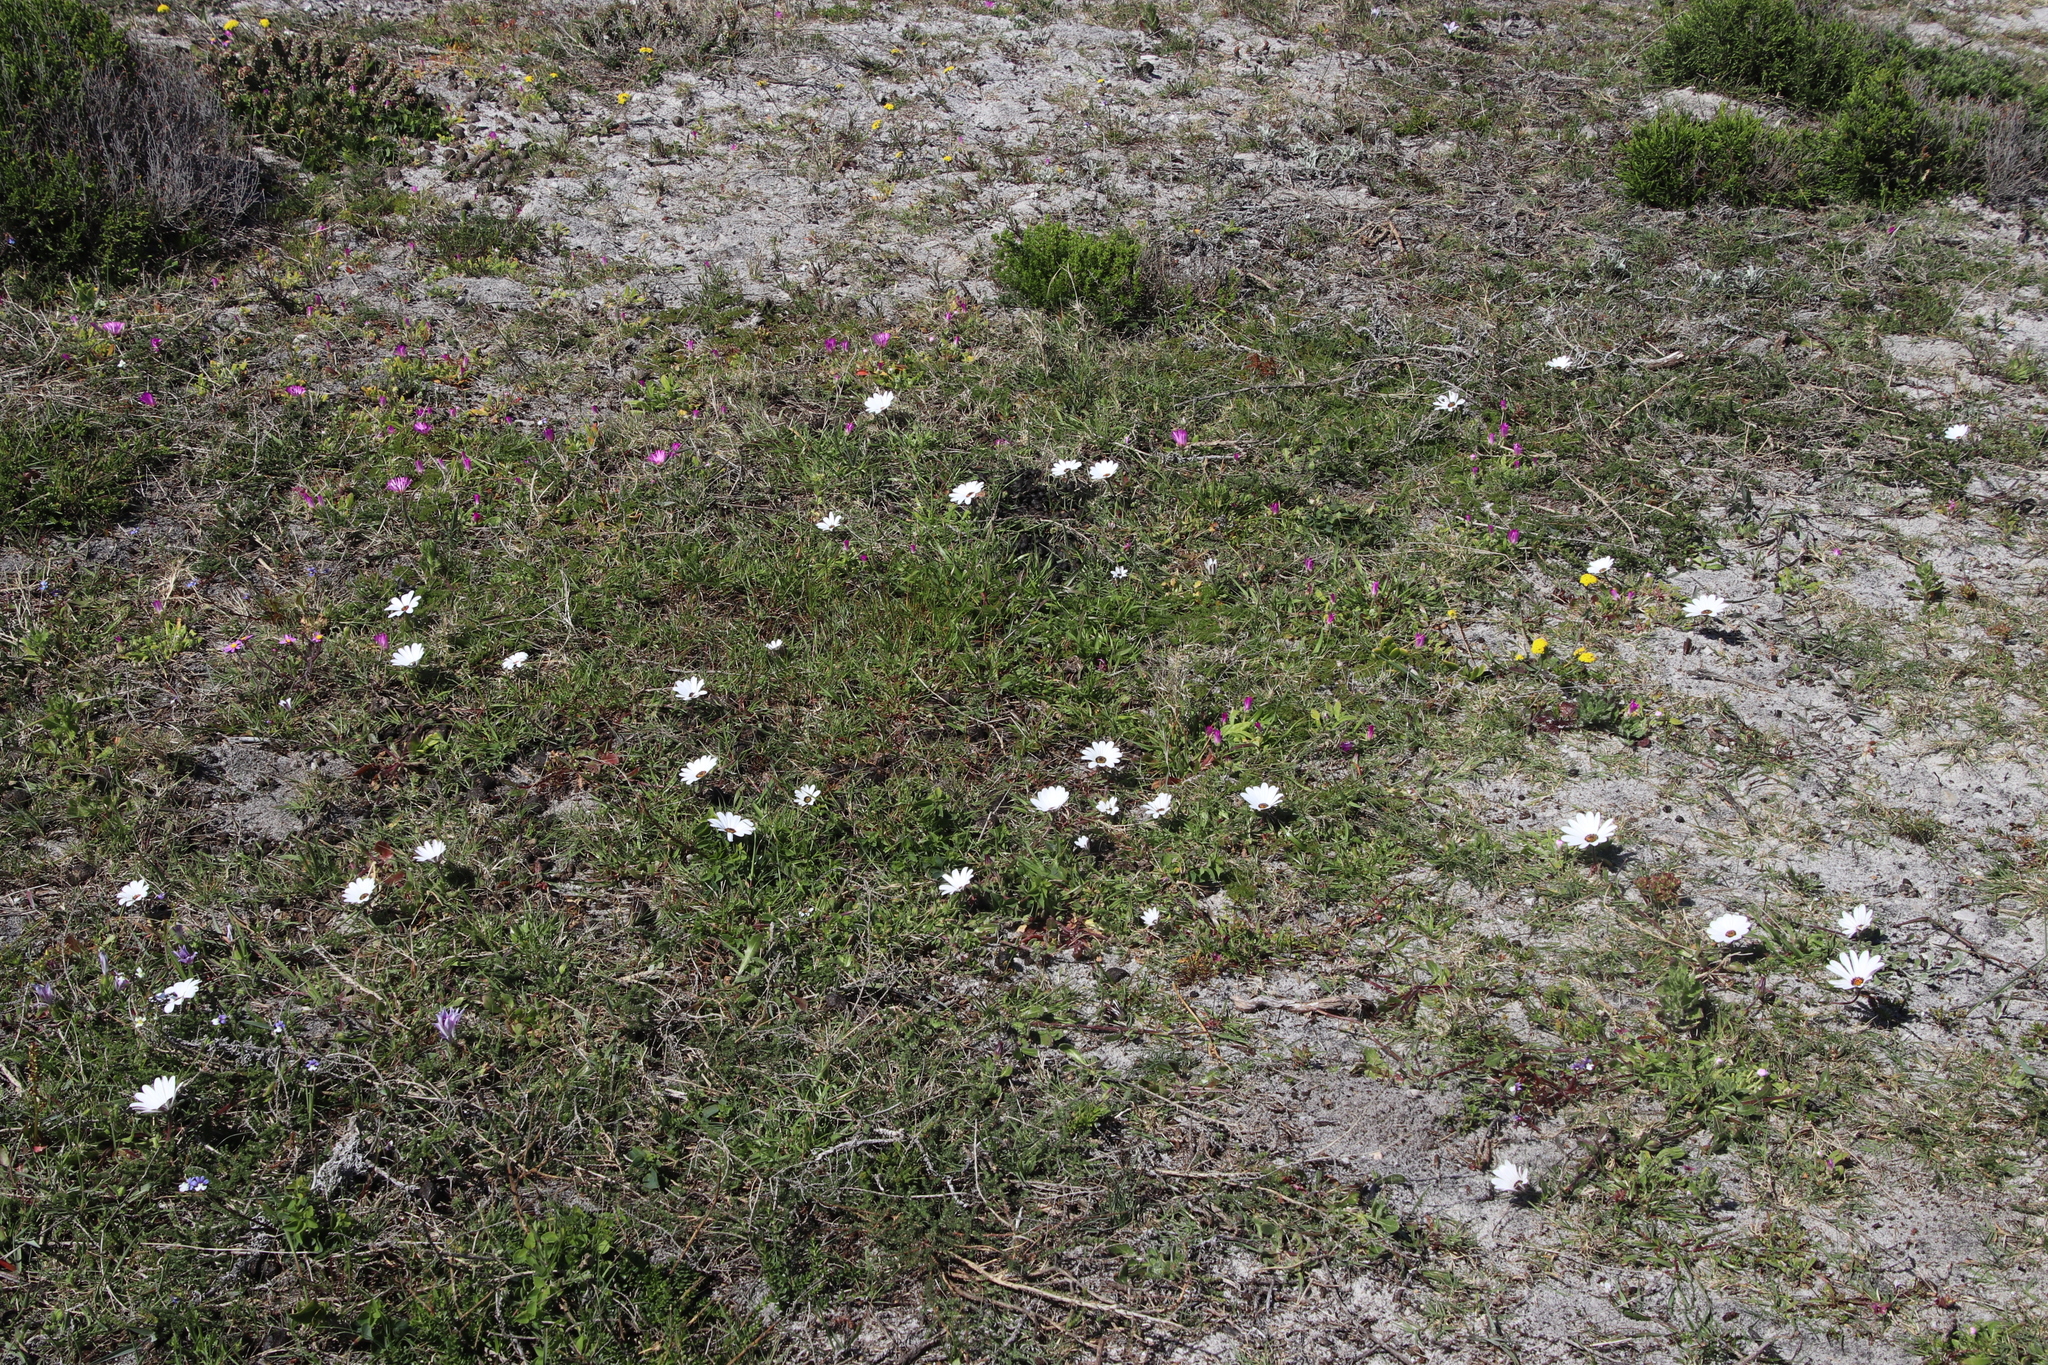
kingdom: Plantae
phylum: Tracheophyta
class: Magnoliopsida
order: Asterales
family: Asteraceae
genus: Dimorphotheca
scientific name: Dimorphotheca pluvialis
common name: Weather prophet
